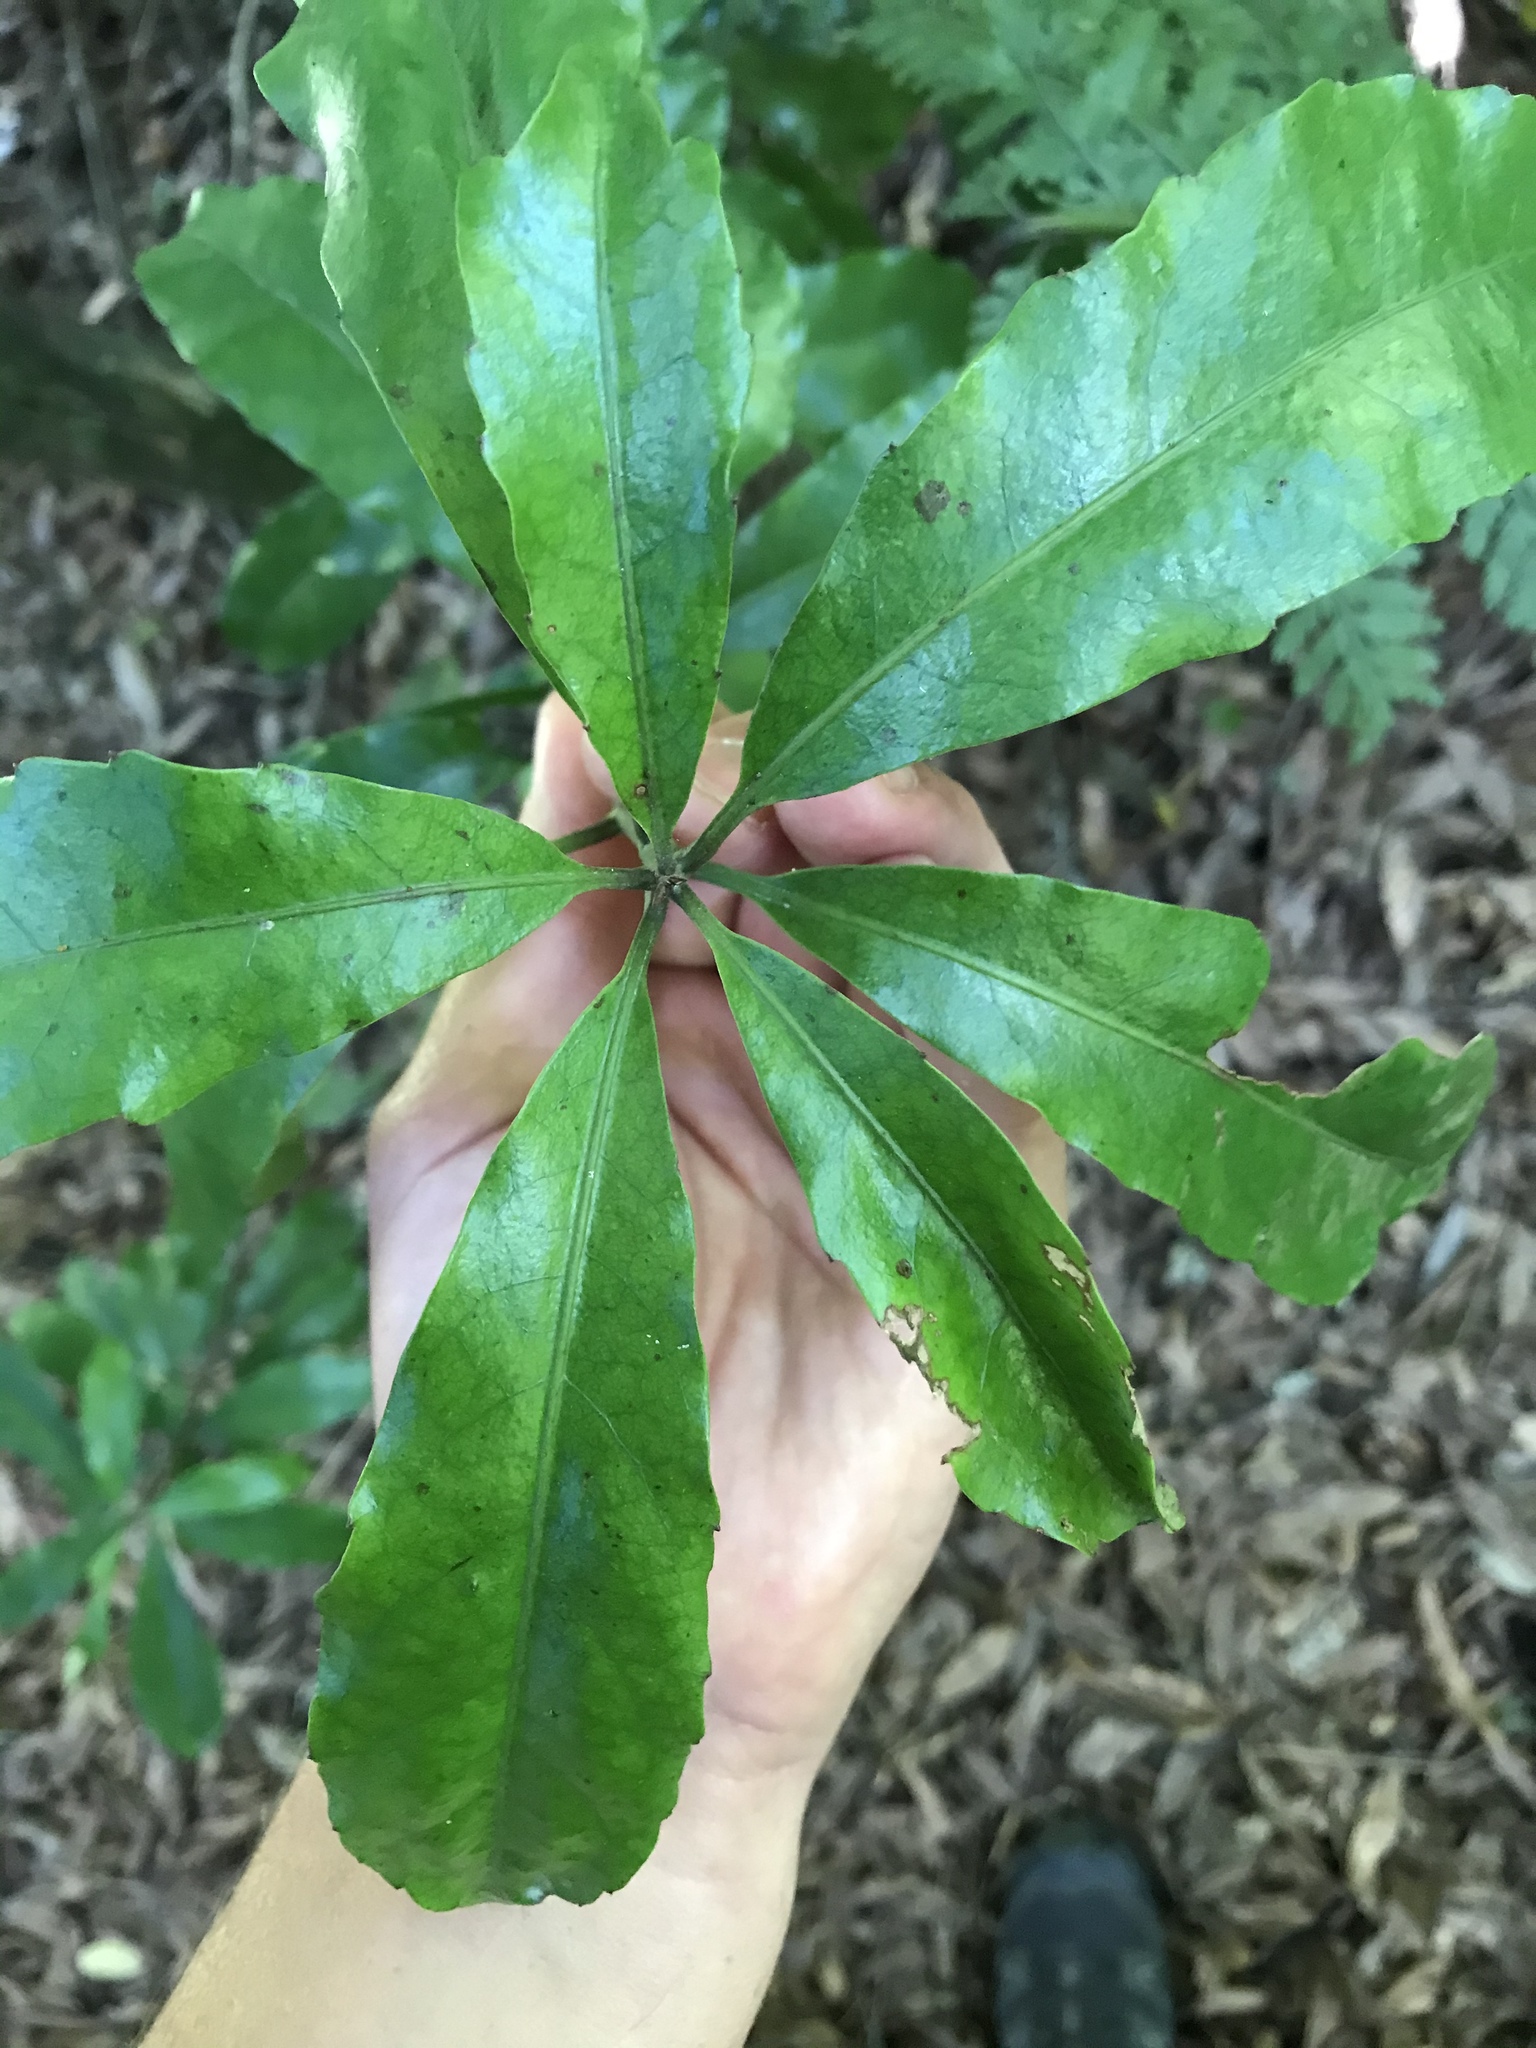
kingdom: Plantae
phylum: Tracheophyta
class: Magnoliopsida
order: Asterales
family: Alseuosmiaceae
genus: Alseuosmia
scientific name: Alseuosmia macrophylla
